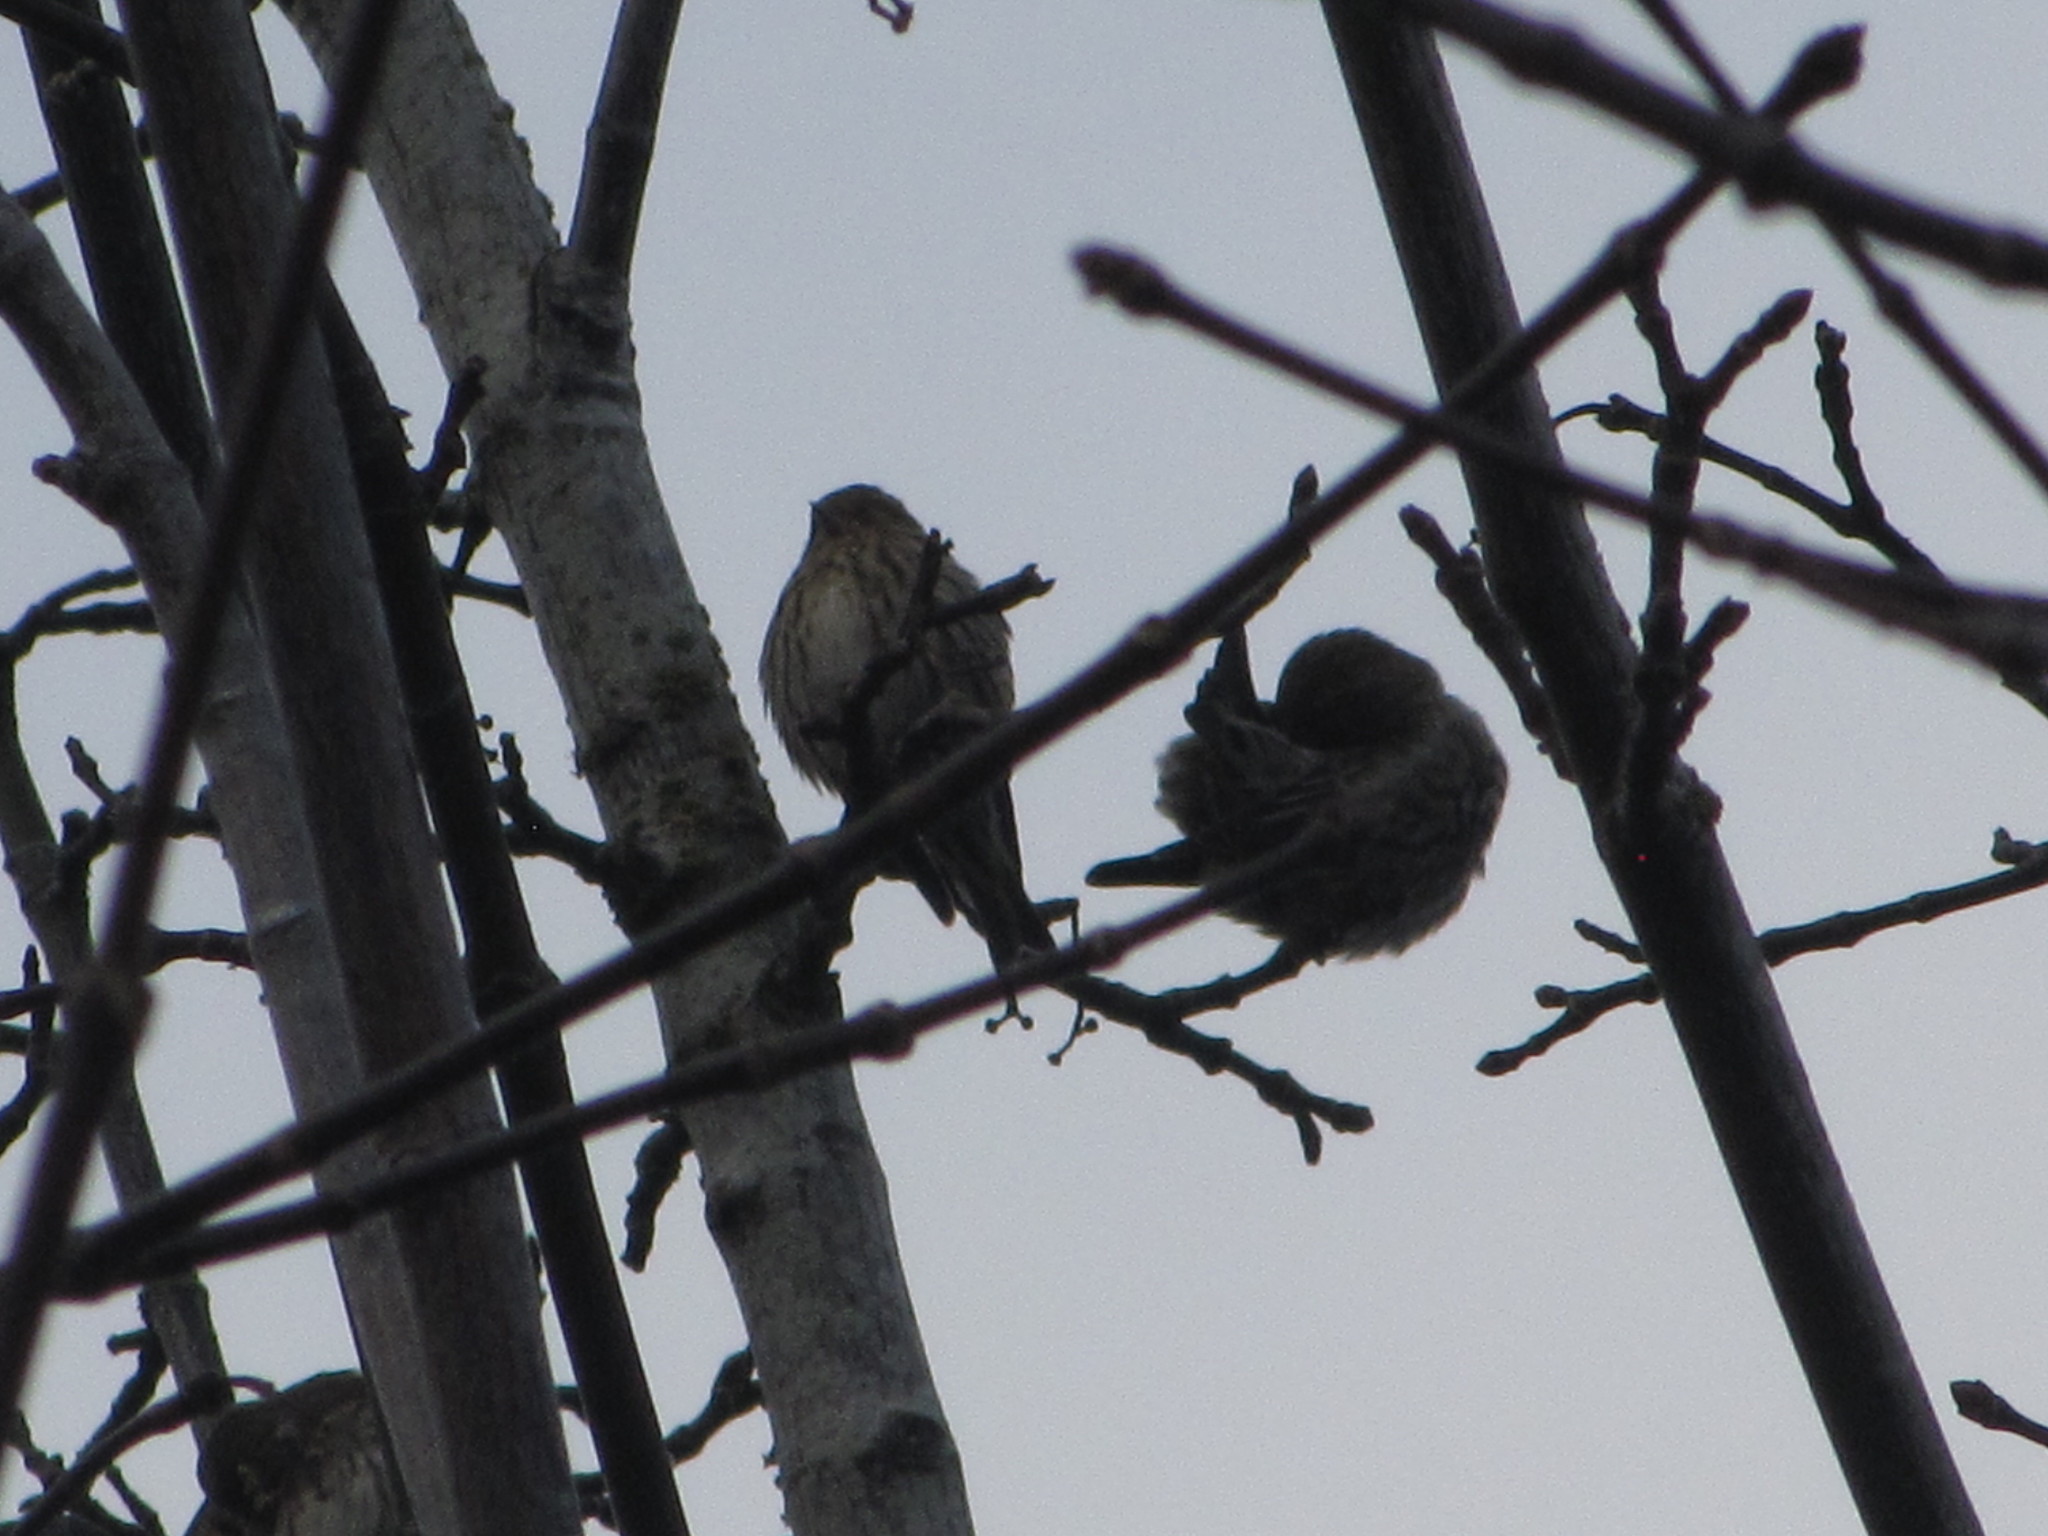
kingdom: Animalia
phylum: Chordata
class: Aves
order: Passeriformes
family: Fringillidae
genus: Spinus
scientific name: Spinus pinus
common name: Pine siskin
